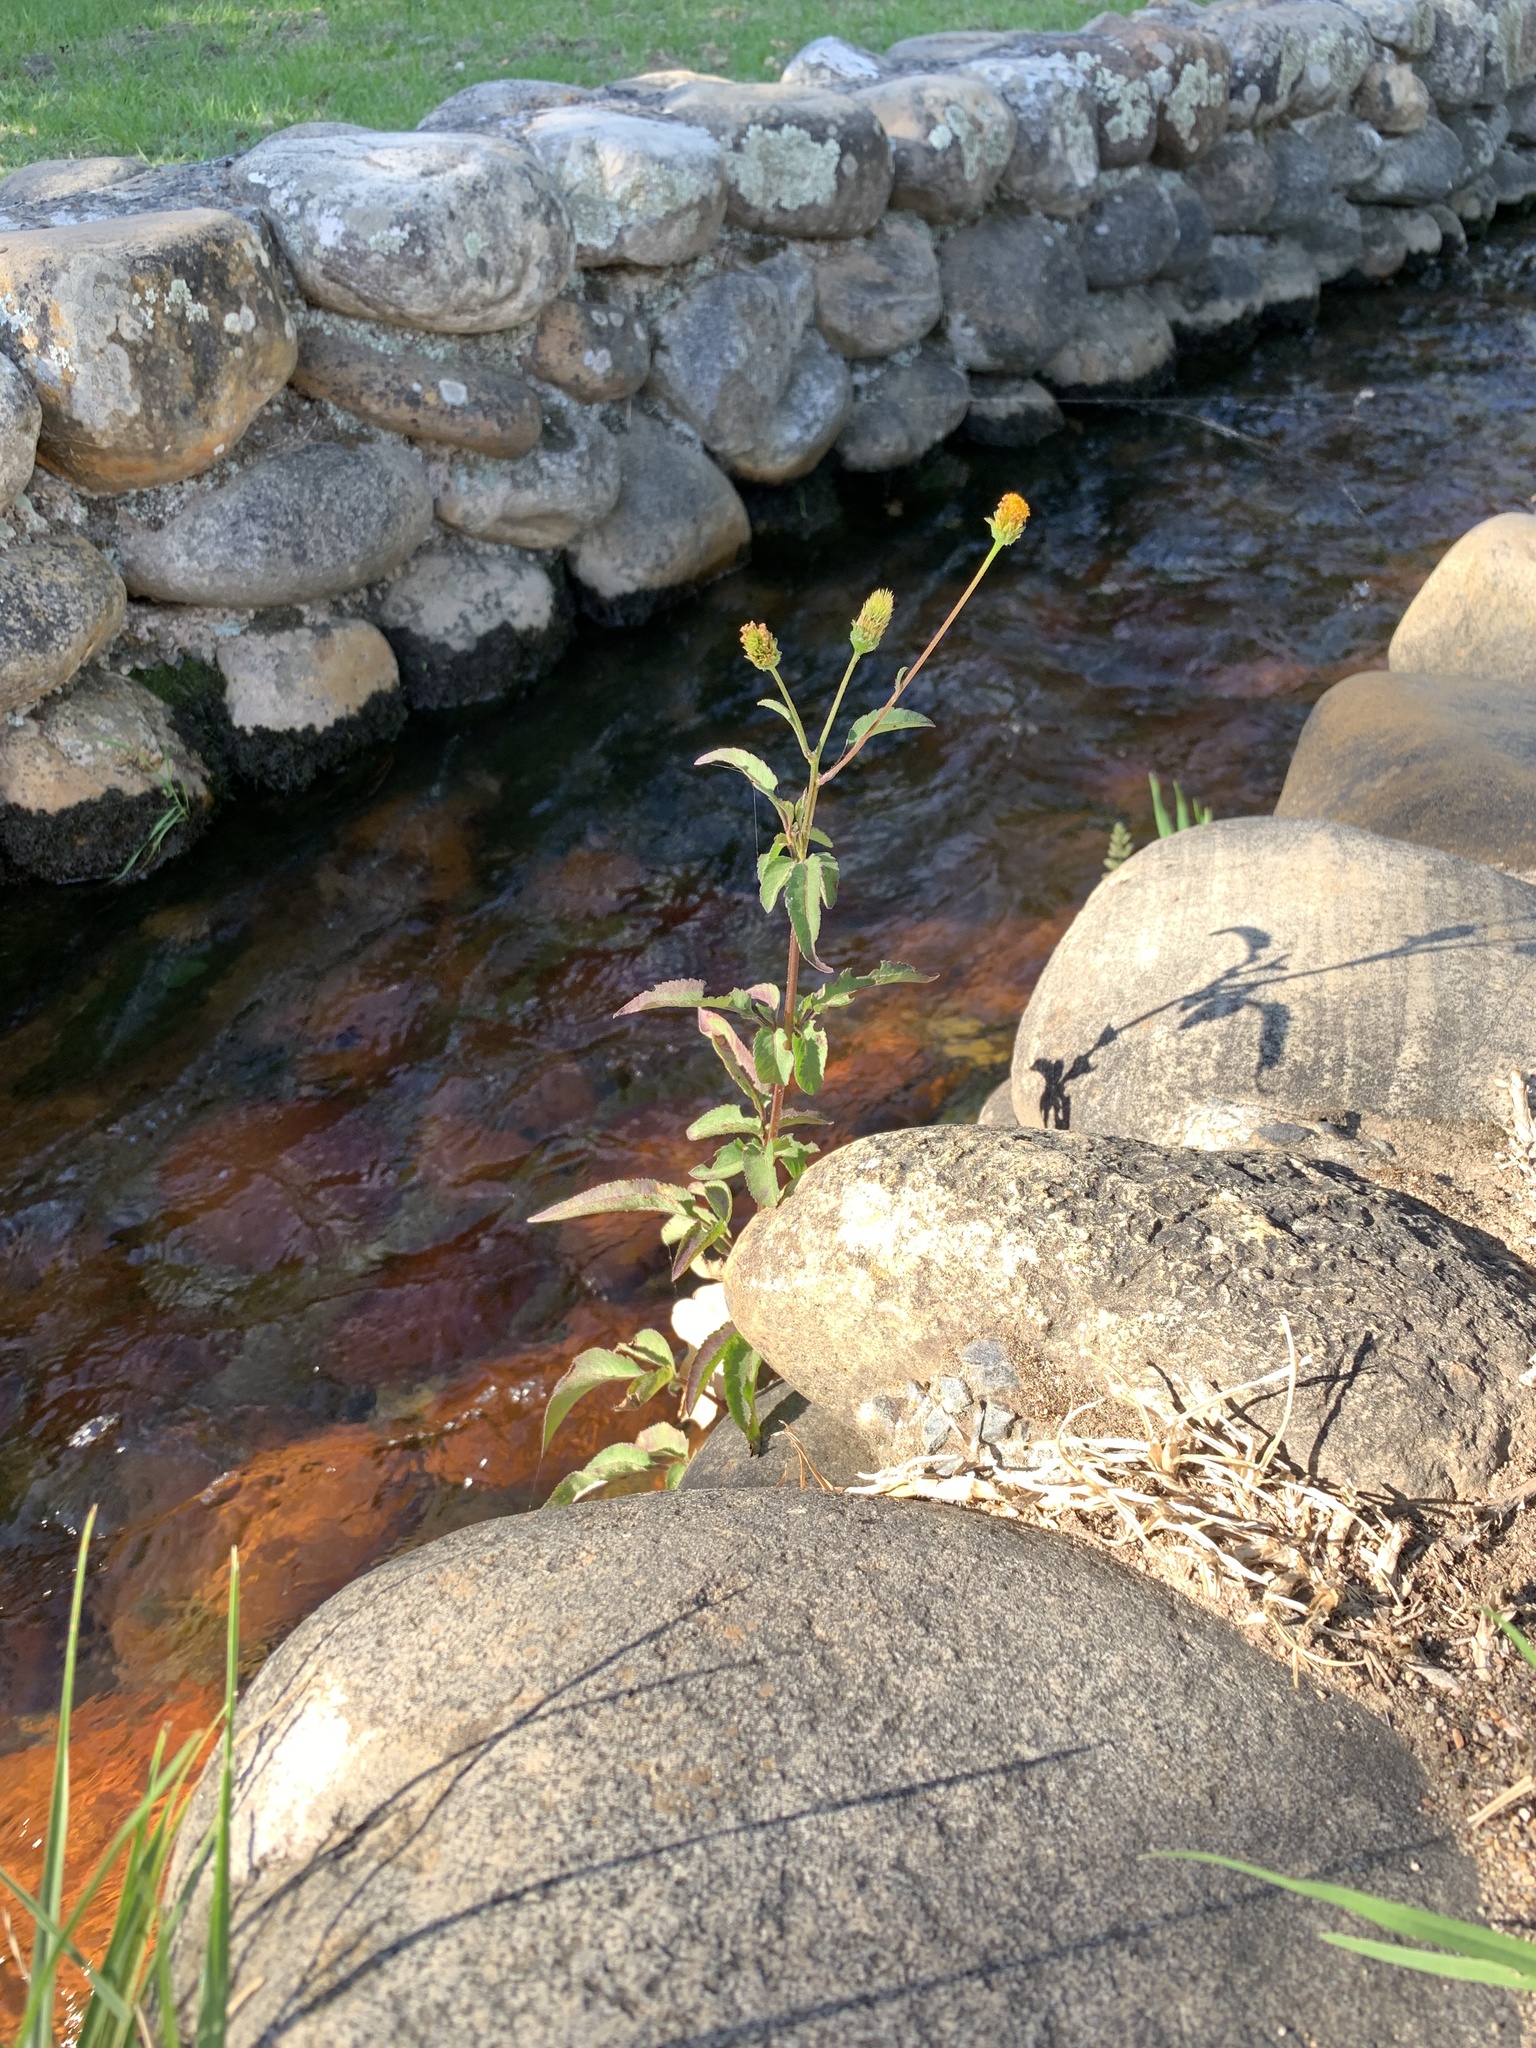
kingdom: Plantae
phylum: Tracheophyta
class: Magnoliopsida
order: Asterales
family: Asteraceae
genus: Bidens
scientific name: Bidens pilosa
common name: Black-jack
